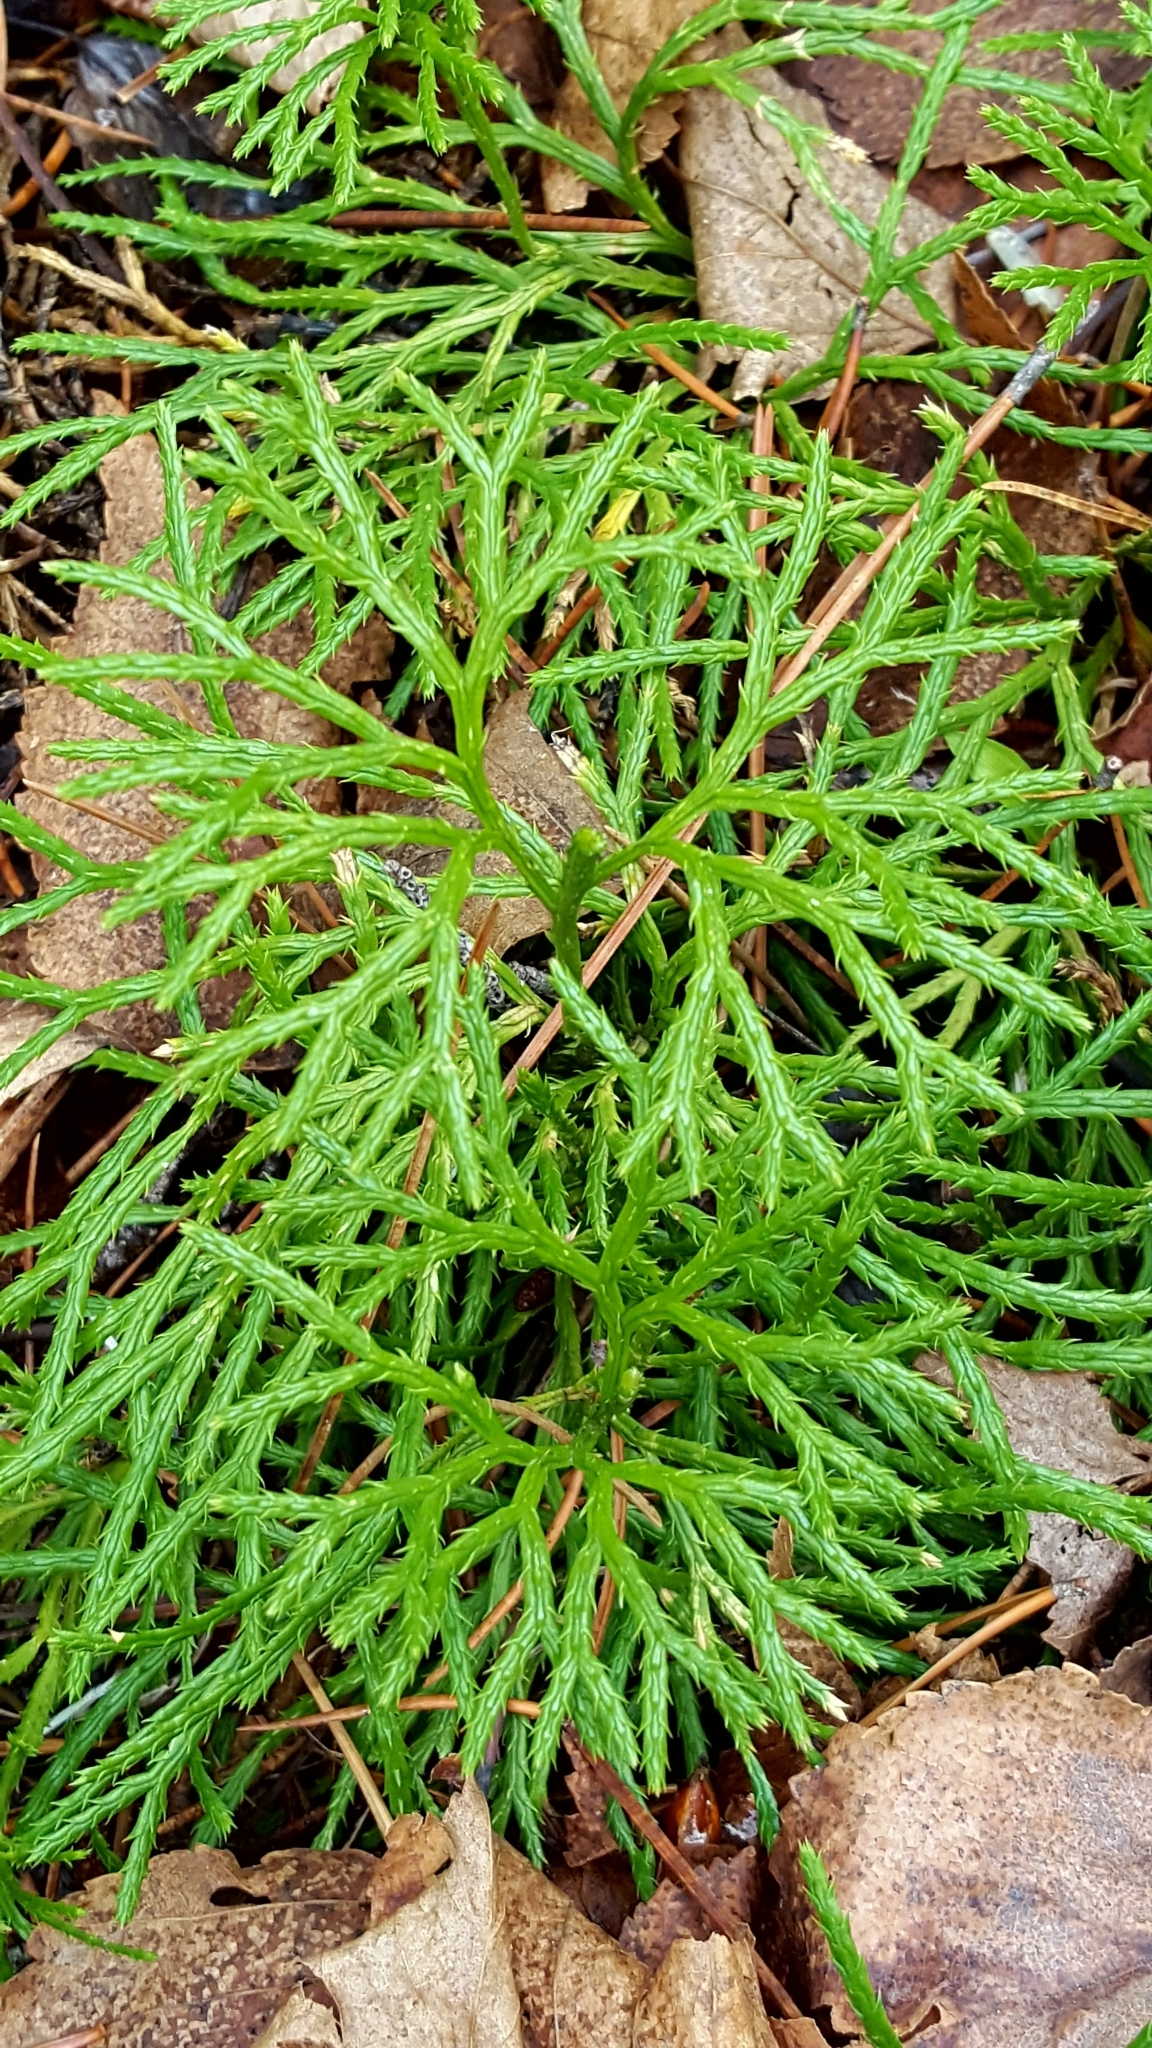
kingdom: Plantae
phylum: Tracheophyta
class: Lycopodiopsida
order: Lycopodiales
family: Lycopodiaceae
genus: Diphasiastrum
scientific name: Diphasiastrum digitatum
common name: Southern running-pine
